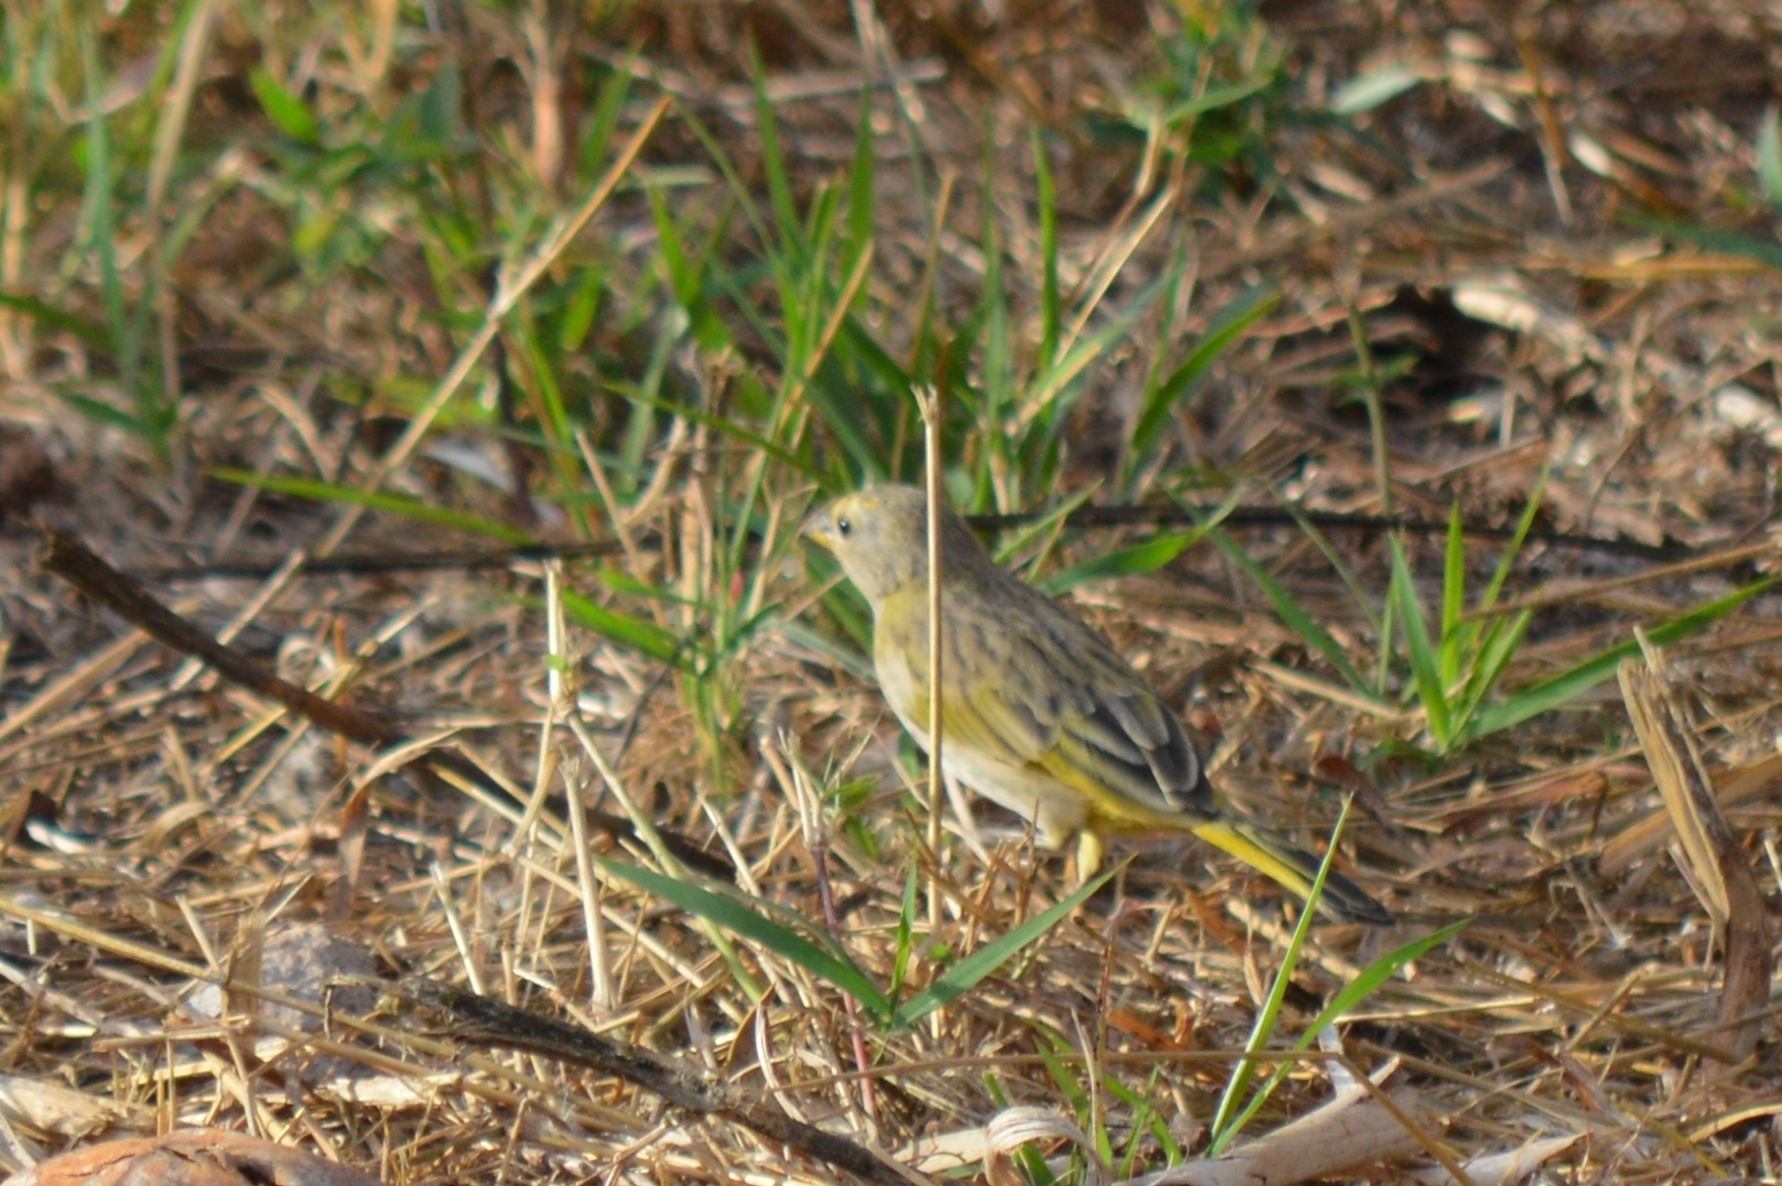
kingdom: Animalia
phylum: Chordata
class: Aves
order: Passeriformes
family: Thraupidae
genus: Sicalis
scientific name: Sicalis flaveola
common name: Saffron finch
